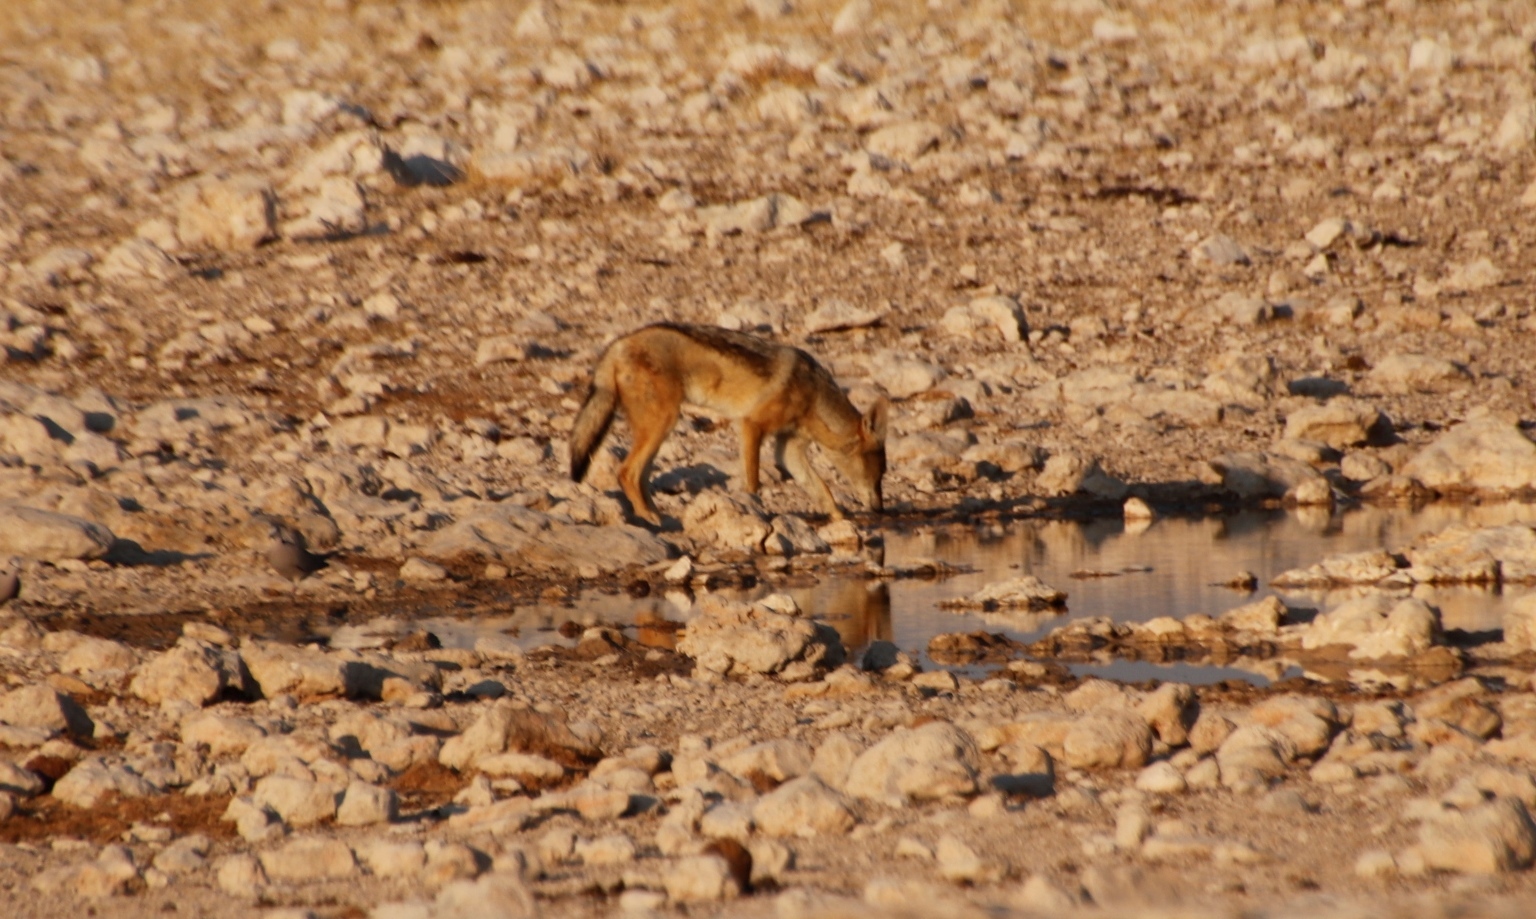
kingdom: Animalia
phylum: Chordata
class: Mammalia
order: Carnivora
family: Canidae
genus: Lupulella
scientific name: Lupulella
